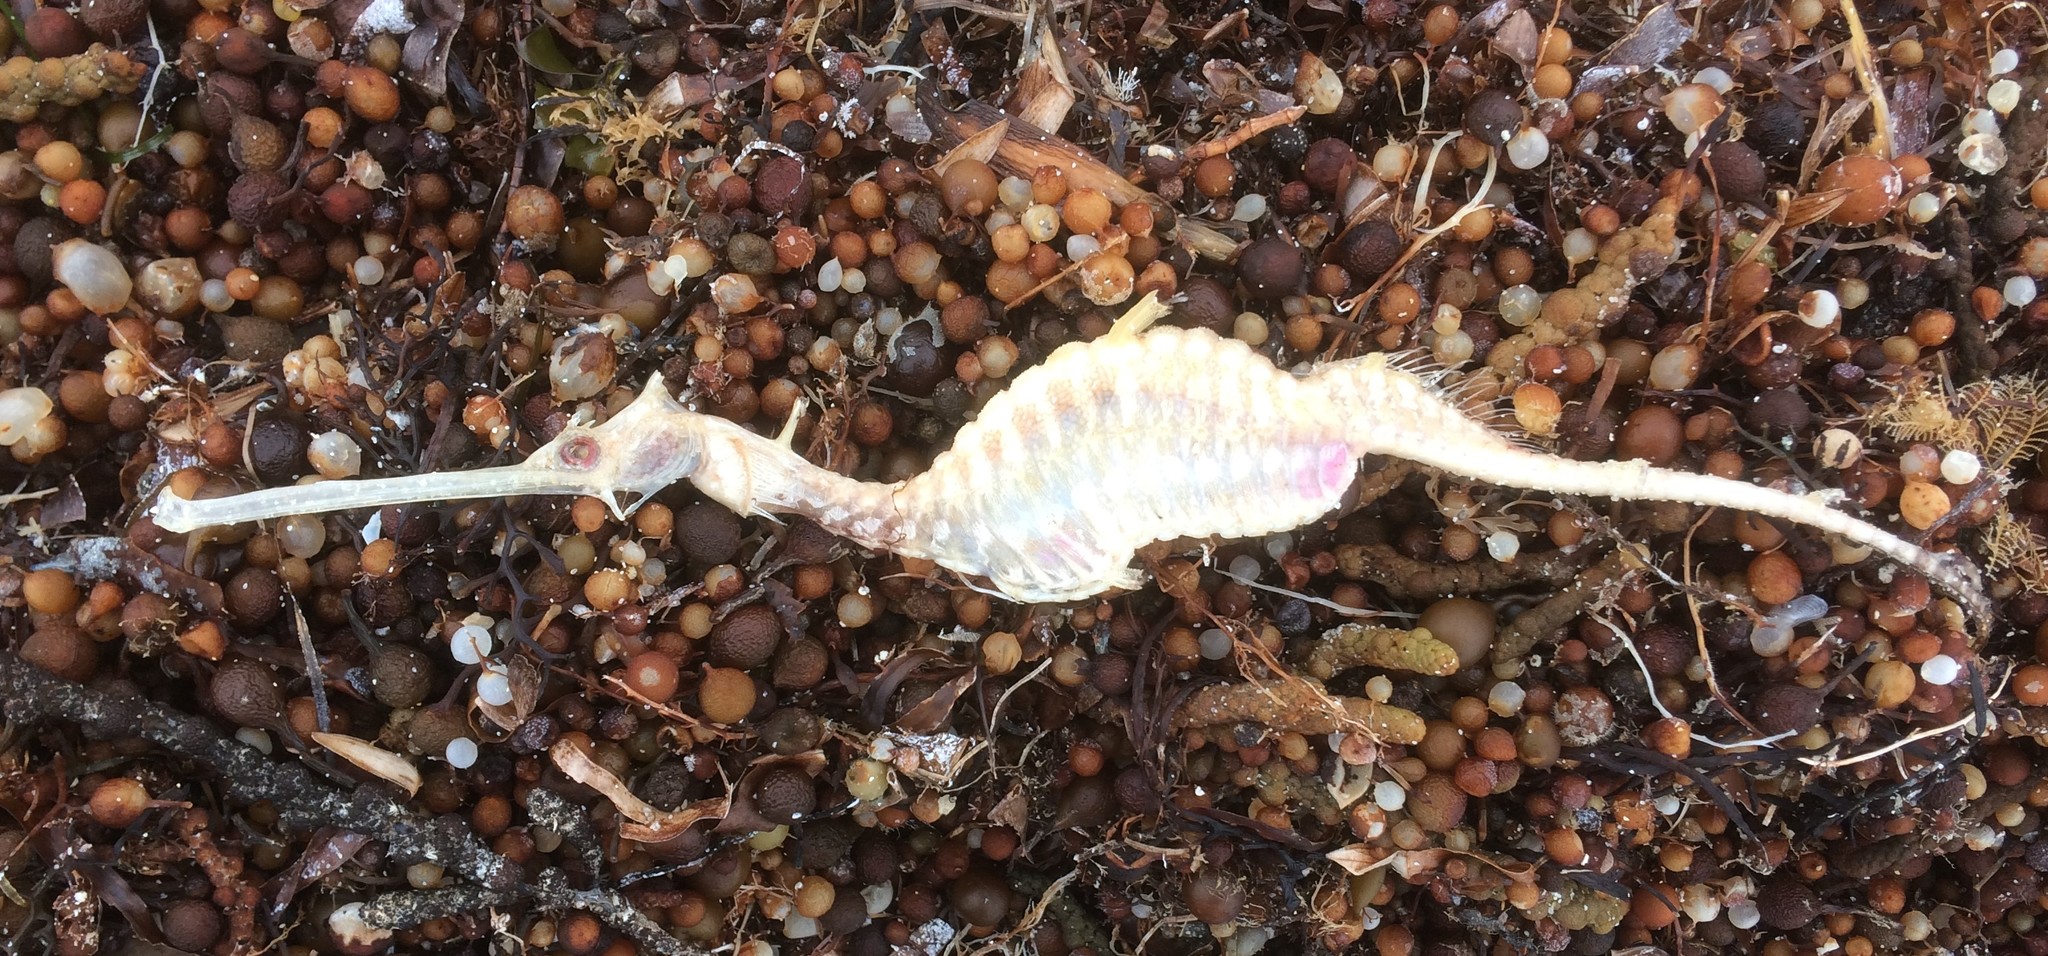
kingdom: Animalia
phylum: Chordata
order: Syngnathiformes
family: Syngnathidae
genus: Phyllopteryx
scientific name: Phyllopteryx taeniolatus
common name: Common seadragon
